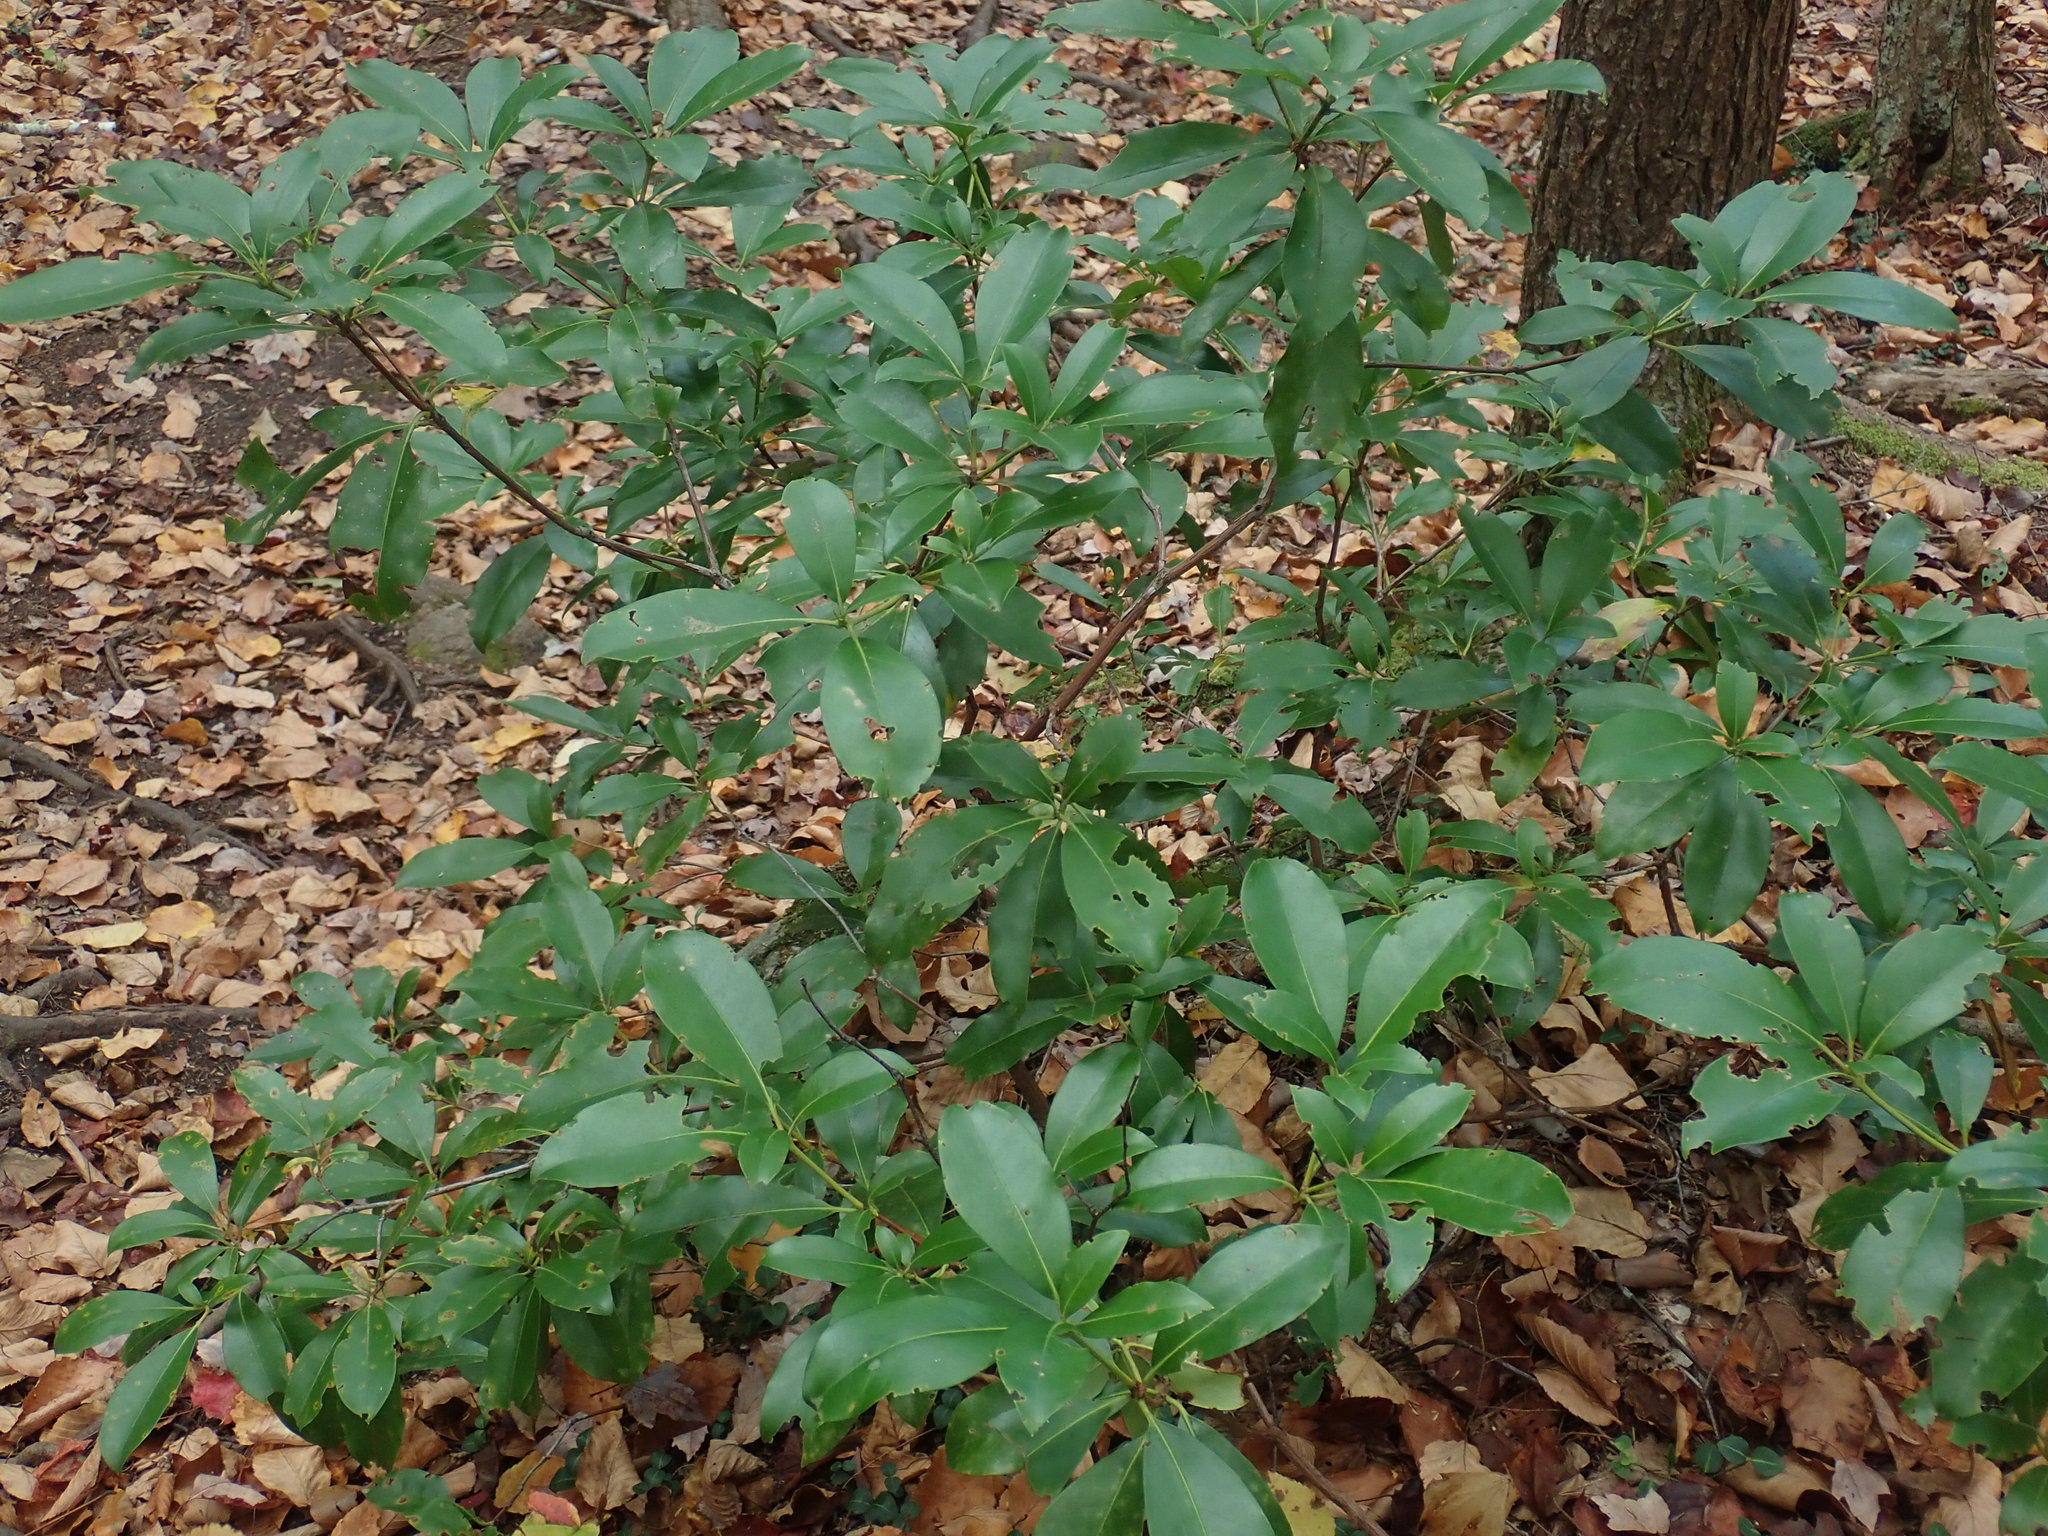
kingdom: Plantae
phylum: Tracheophyta
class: Magnoliopsida
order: Ericales
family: Ericaceae
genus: Kalmia
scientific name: Kalmia latifolia
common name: Mountain-laurel
